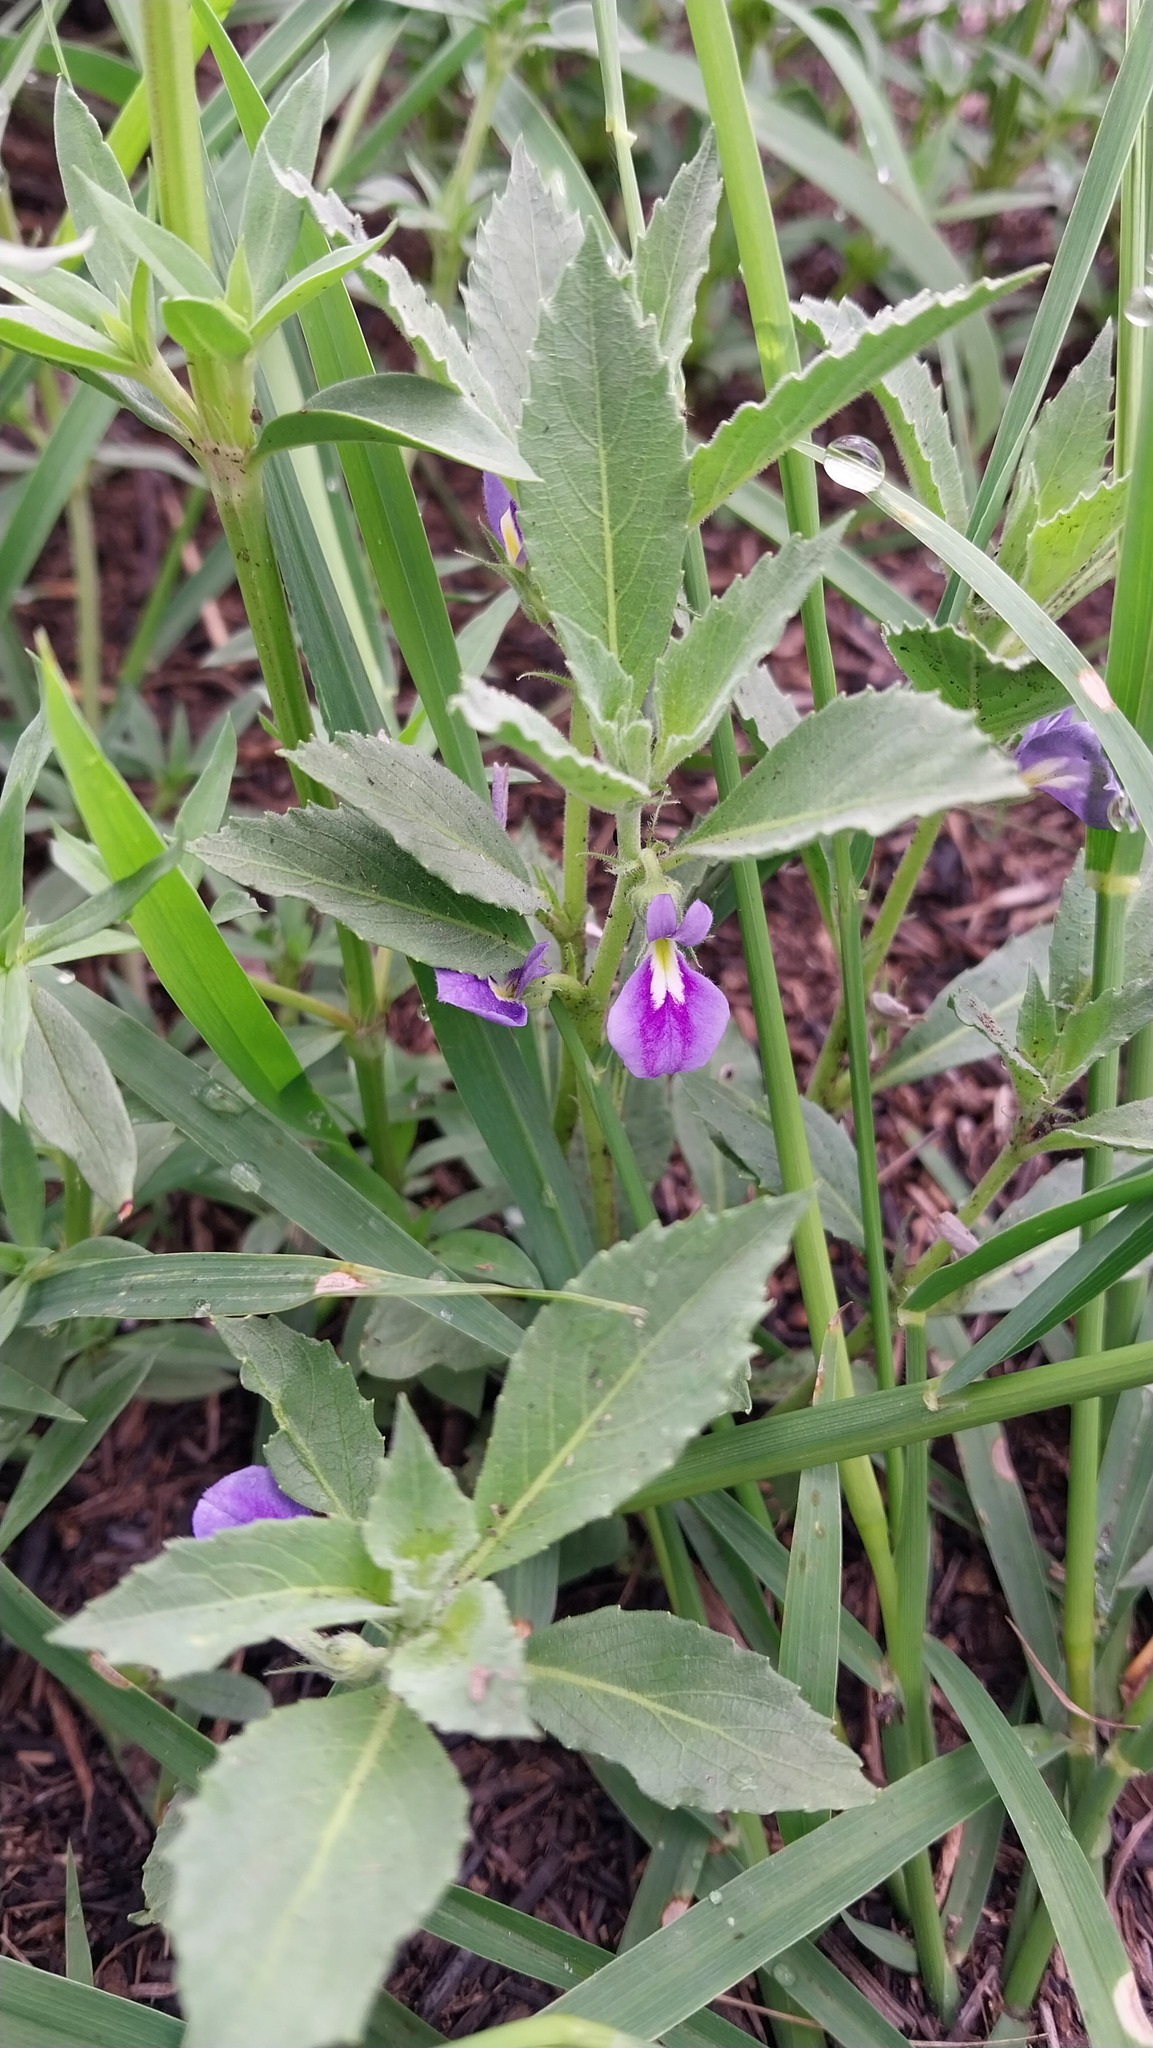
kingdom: Plantae
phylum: Tracheophyta
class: Magnoliopsida
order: Malpighiales
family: Violaceae
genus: Pombalia
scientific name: Pombalia serrata
